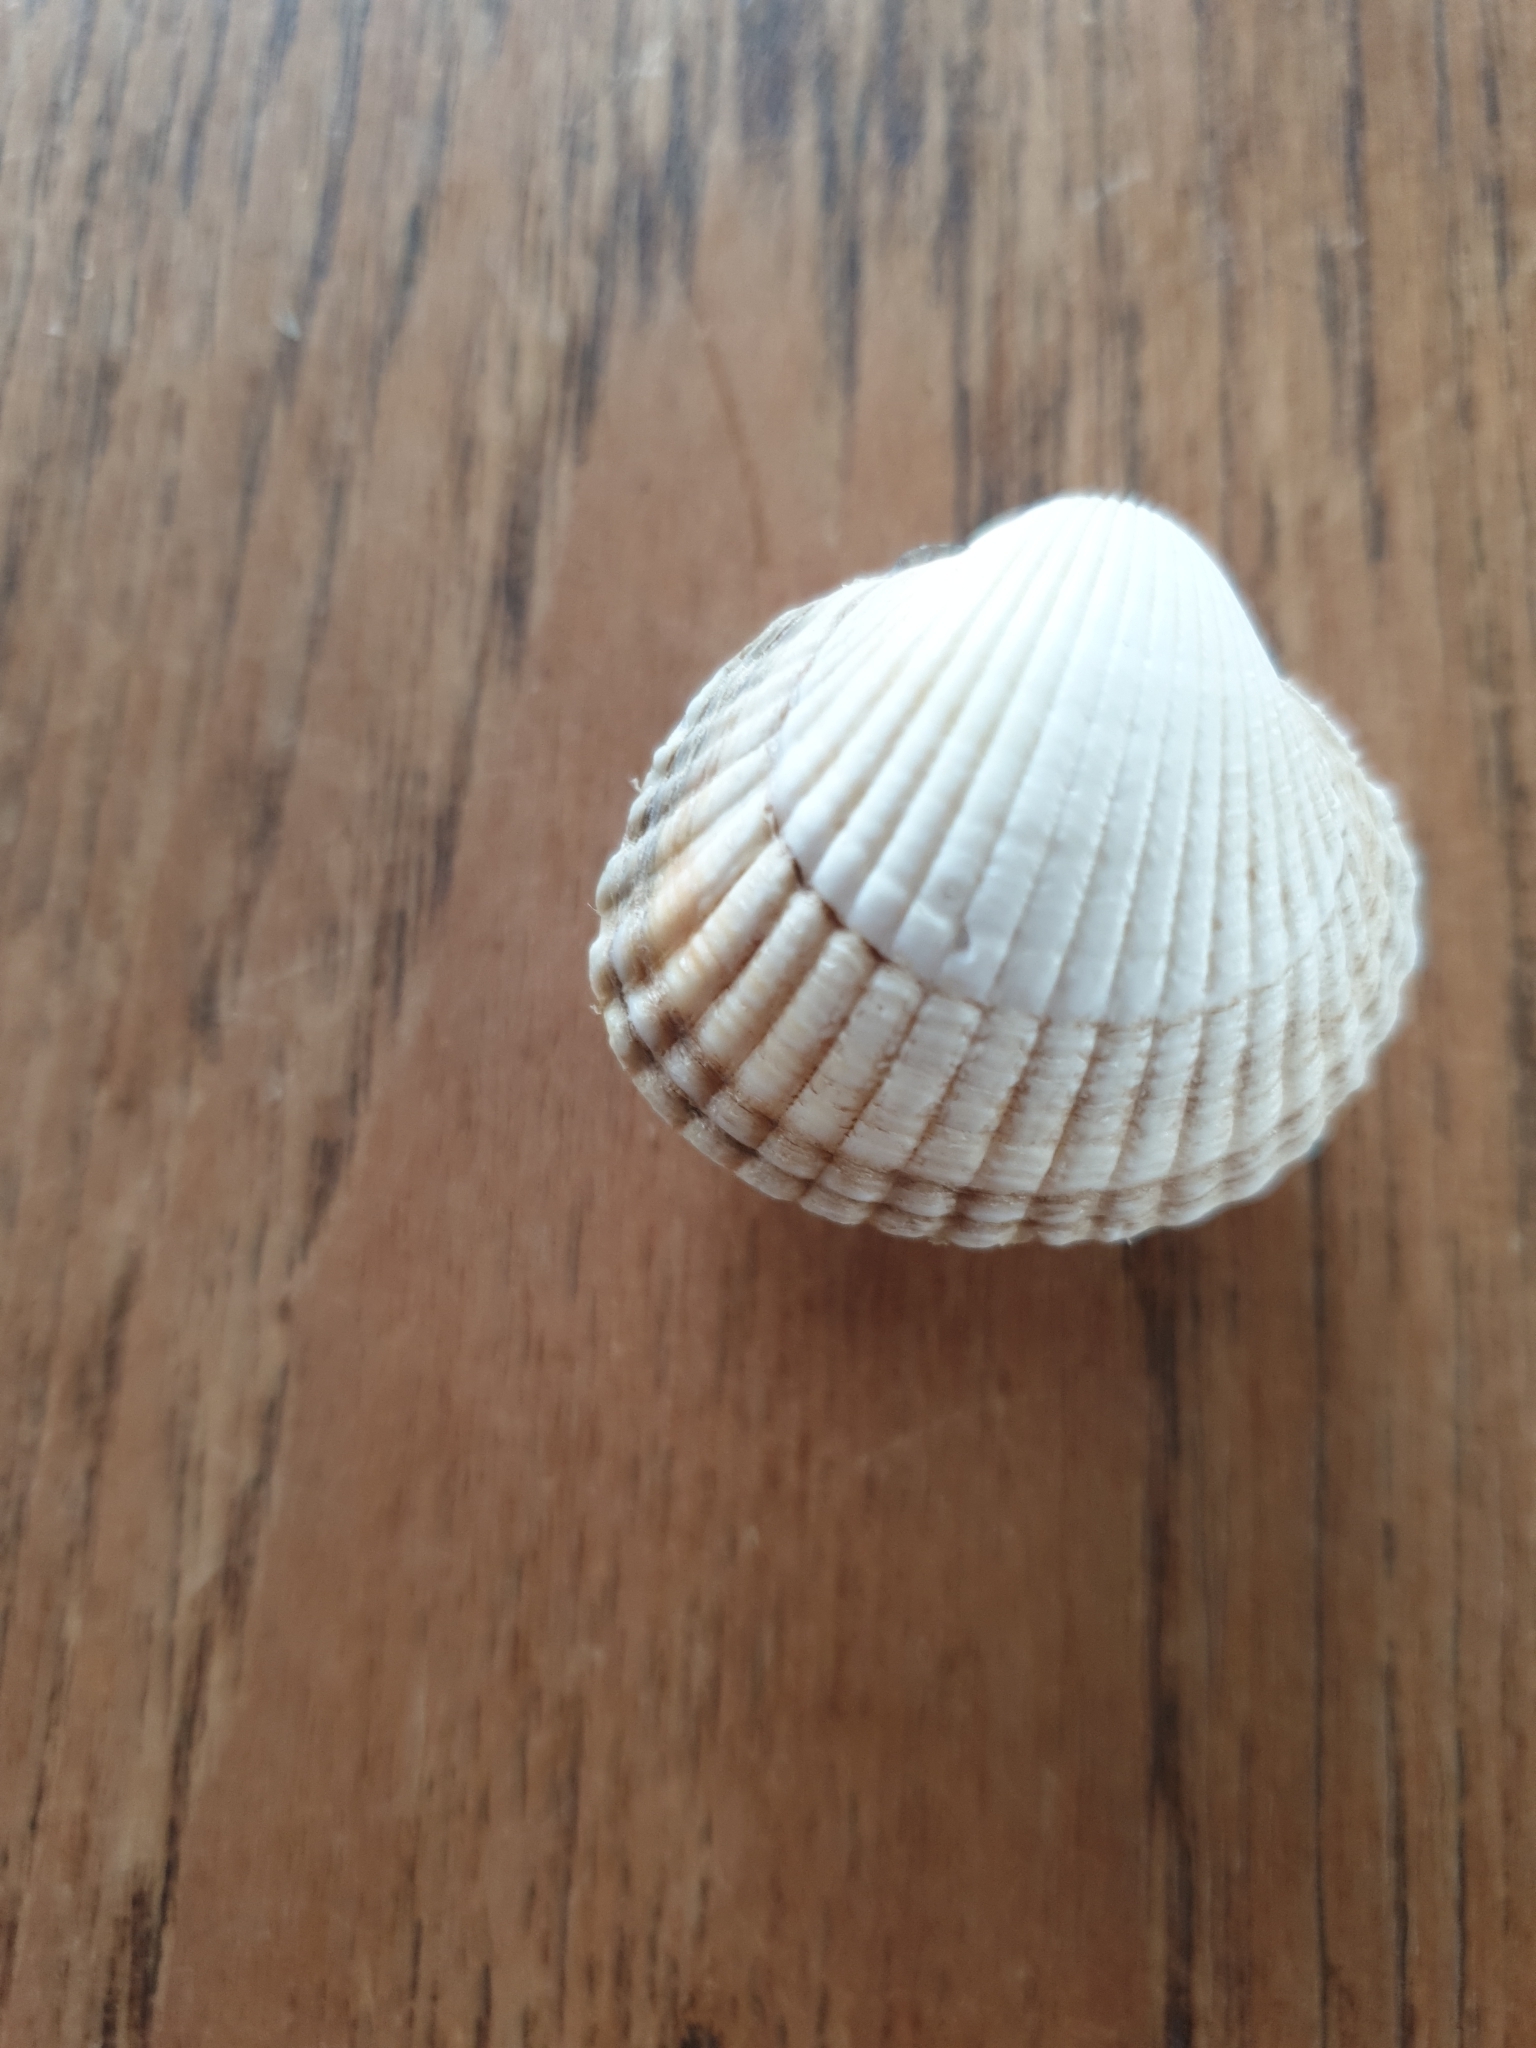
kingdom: Animalia
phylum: Mollusca
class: Bivalvia
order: Cardiida
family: Cardiidae
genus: Cerastoderma
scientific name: Cerastoderma edule
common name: Common cockle
